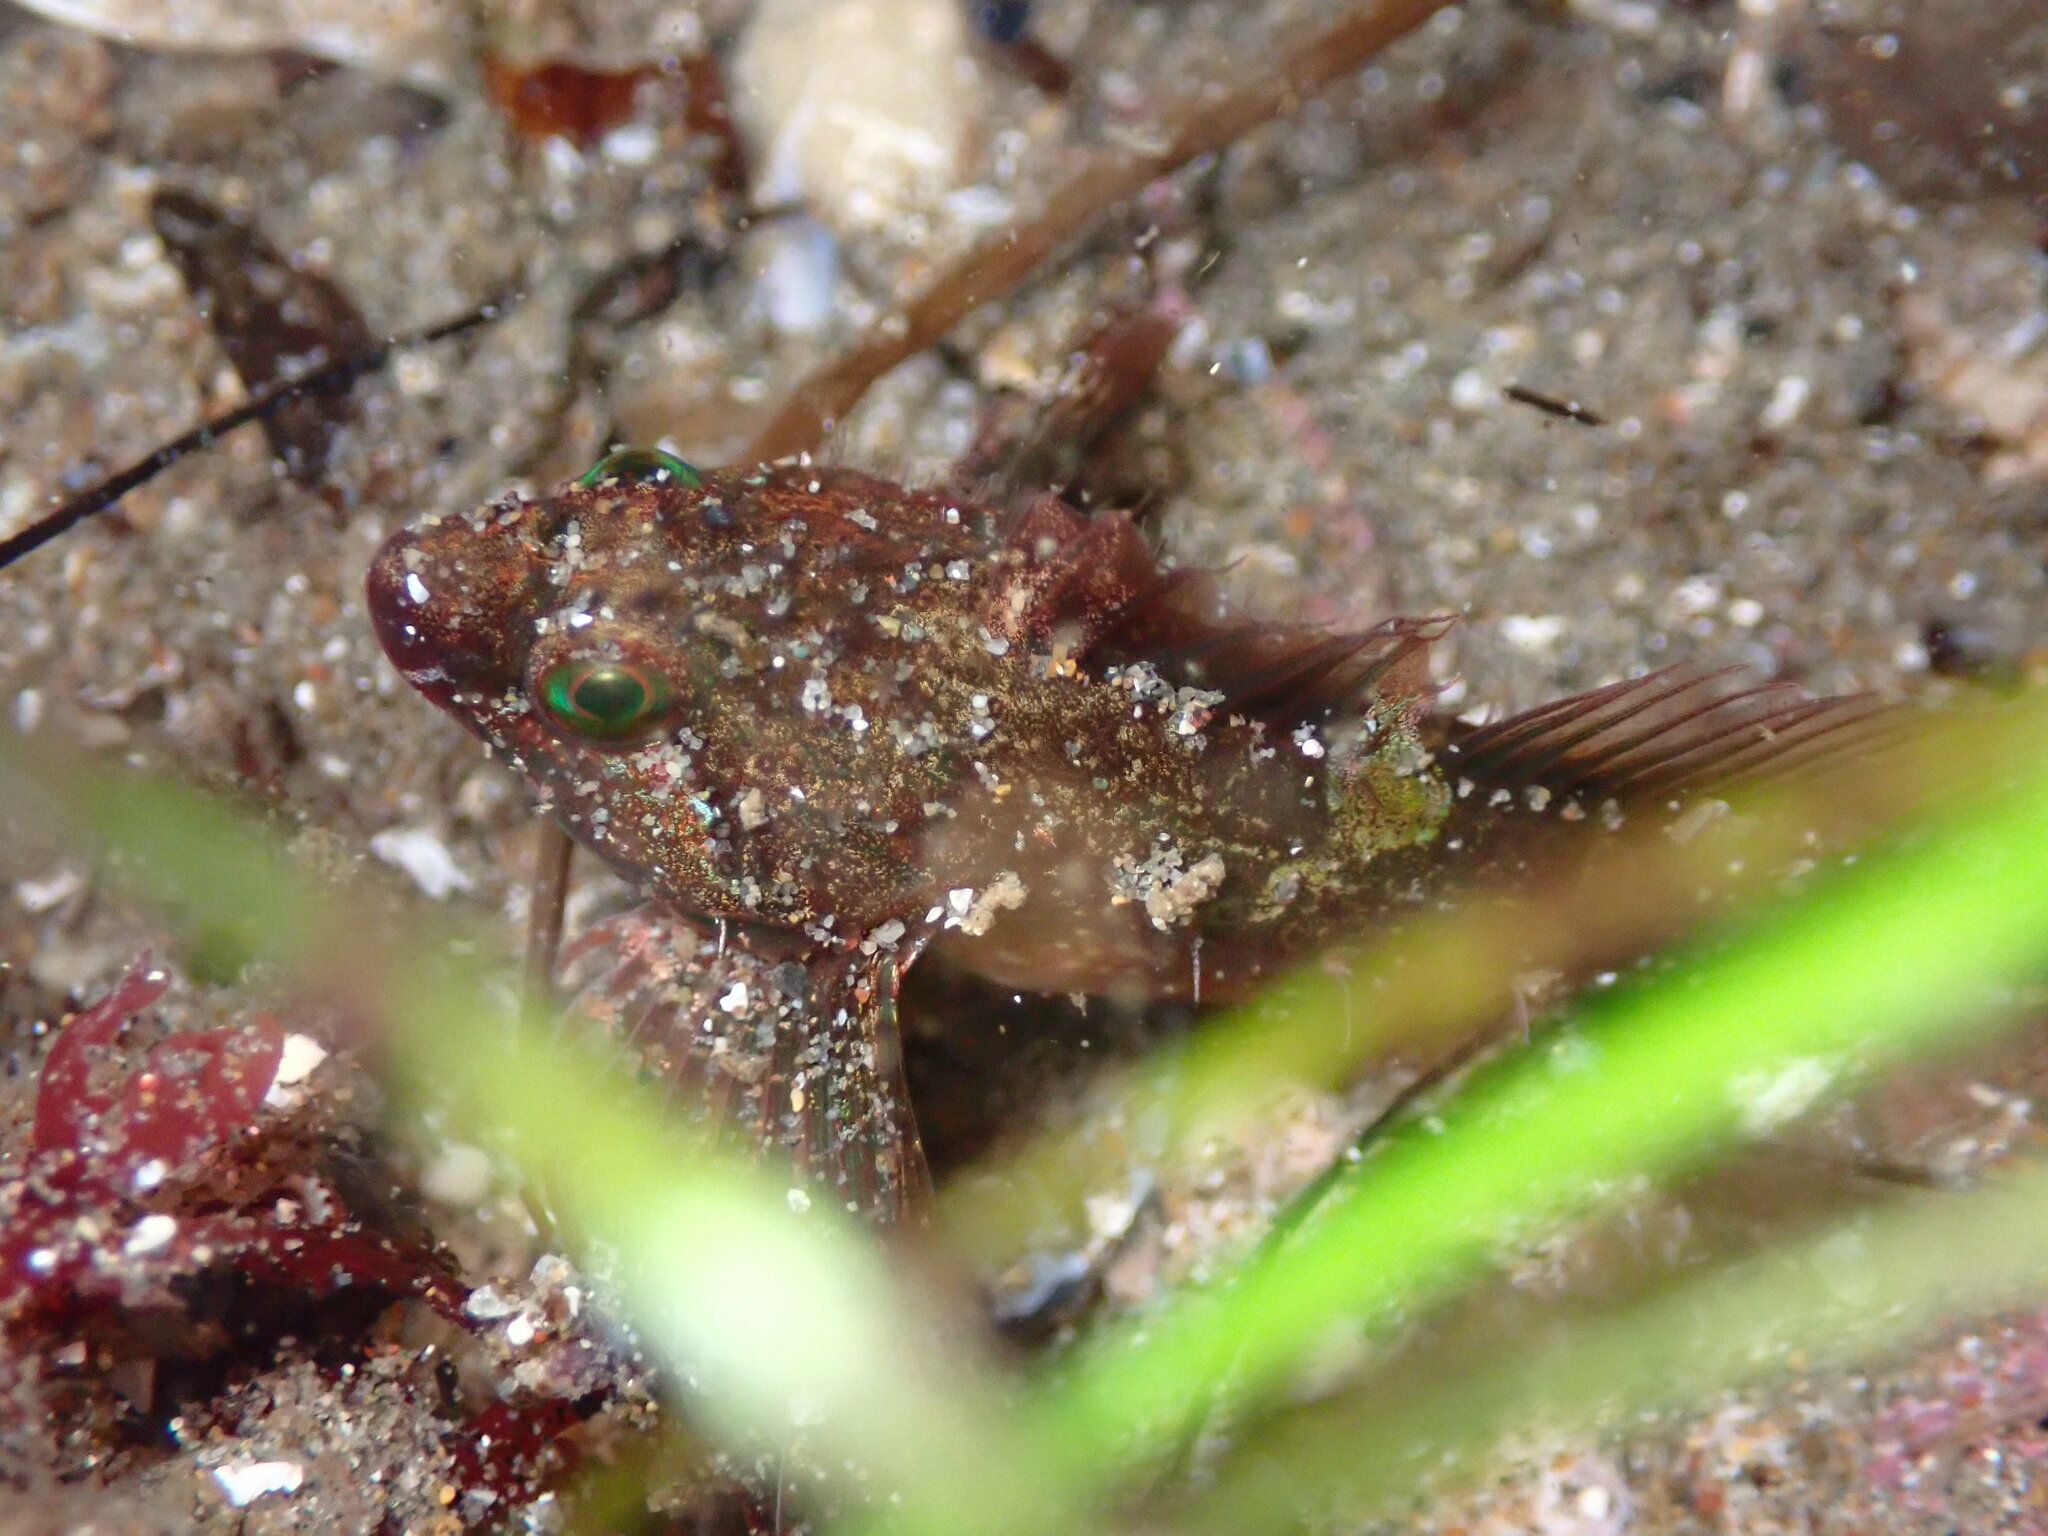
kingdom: Animalia
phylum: Chordata
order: Scorpaeniformes
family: Cottidae
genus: Oligocottus
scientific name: Oligocottus snyderi
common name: Fluffy sculpin
